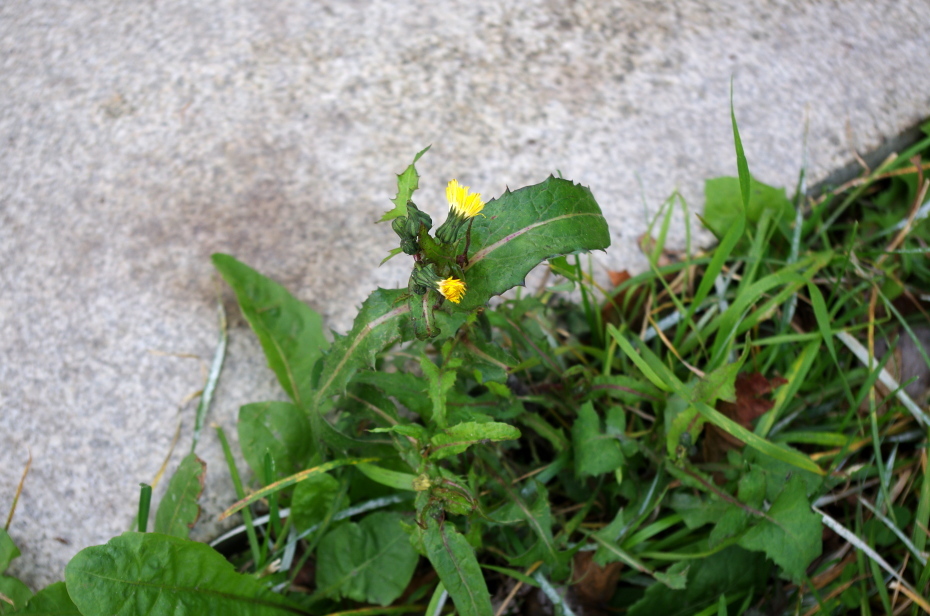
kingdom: Plantae
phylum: Tracheophyta
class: Magnoliopsida
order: Asterales
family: Asteraceae
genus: Sonchus
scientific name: Sonchus oleraceus
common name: Common sowthistle
